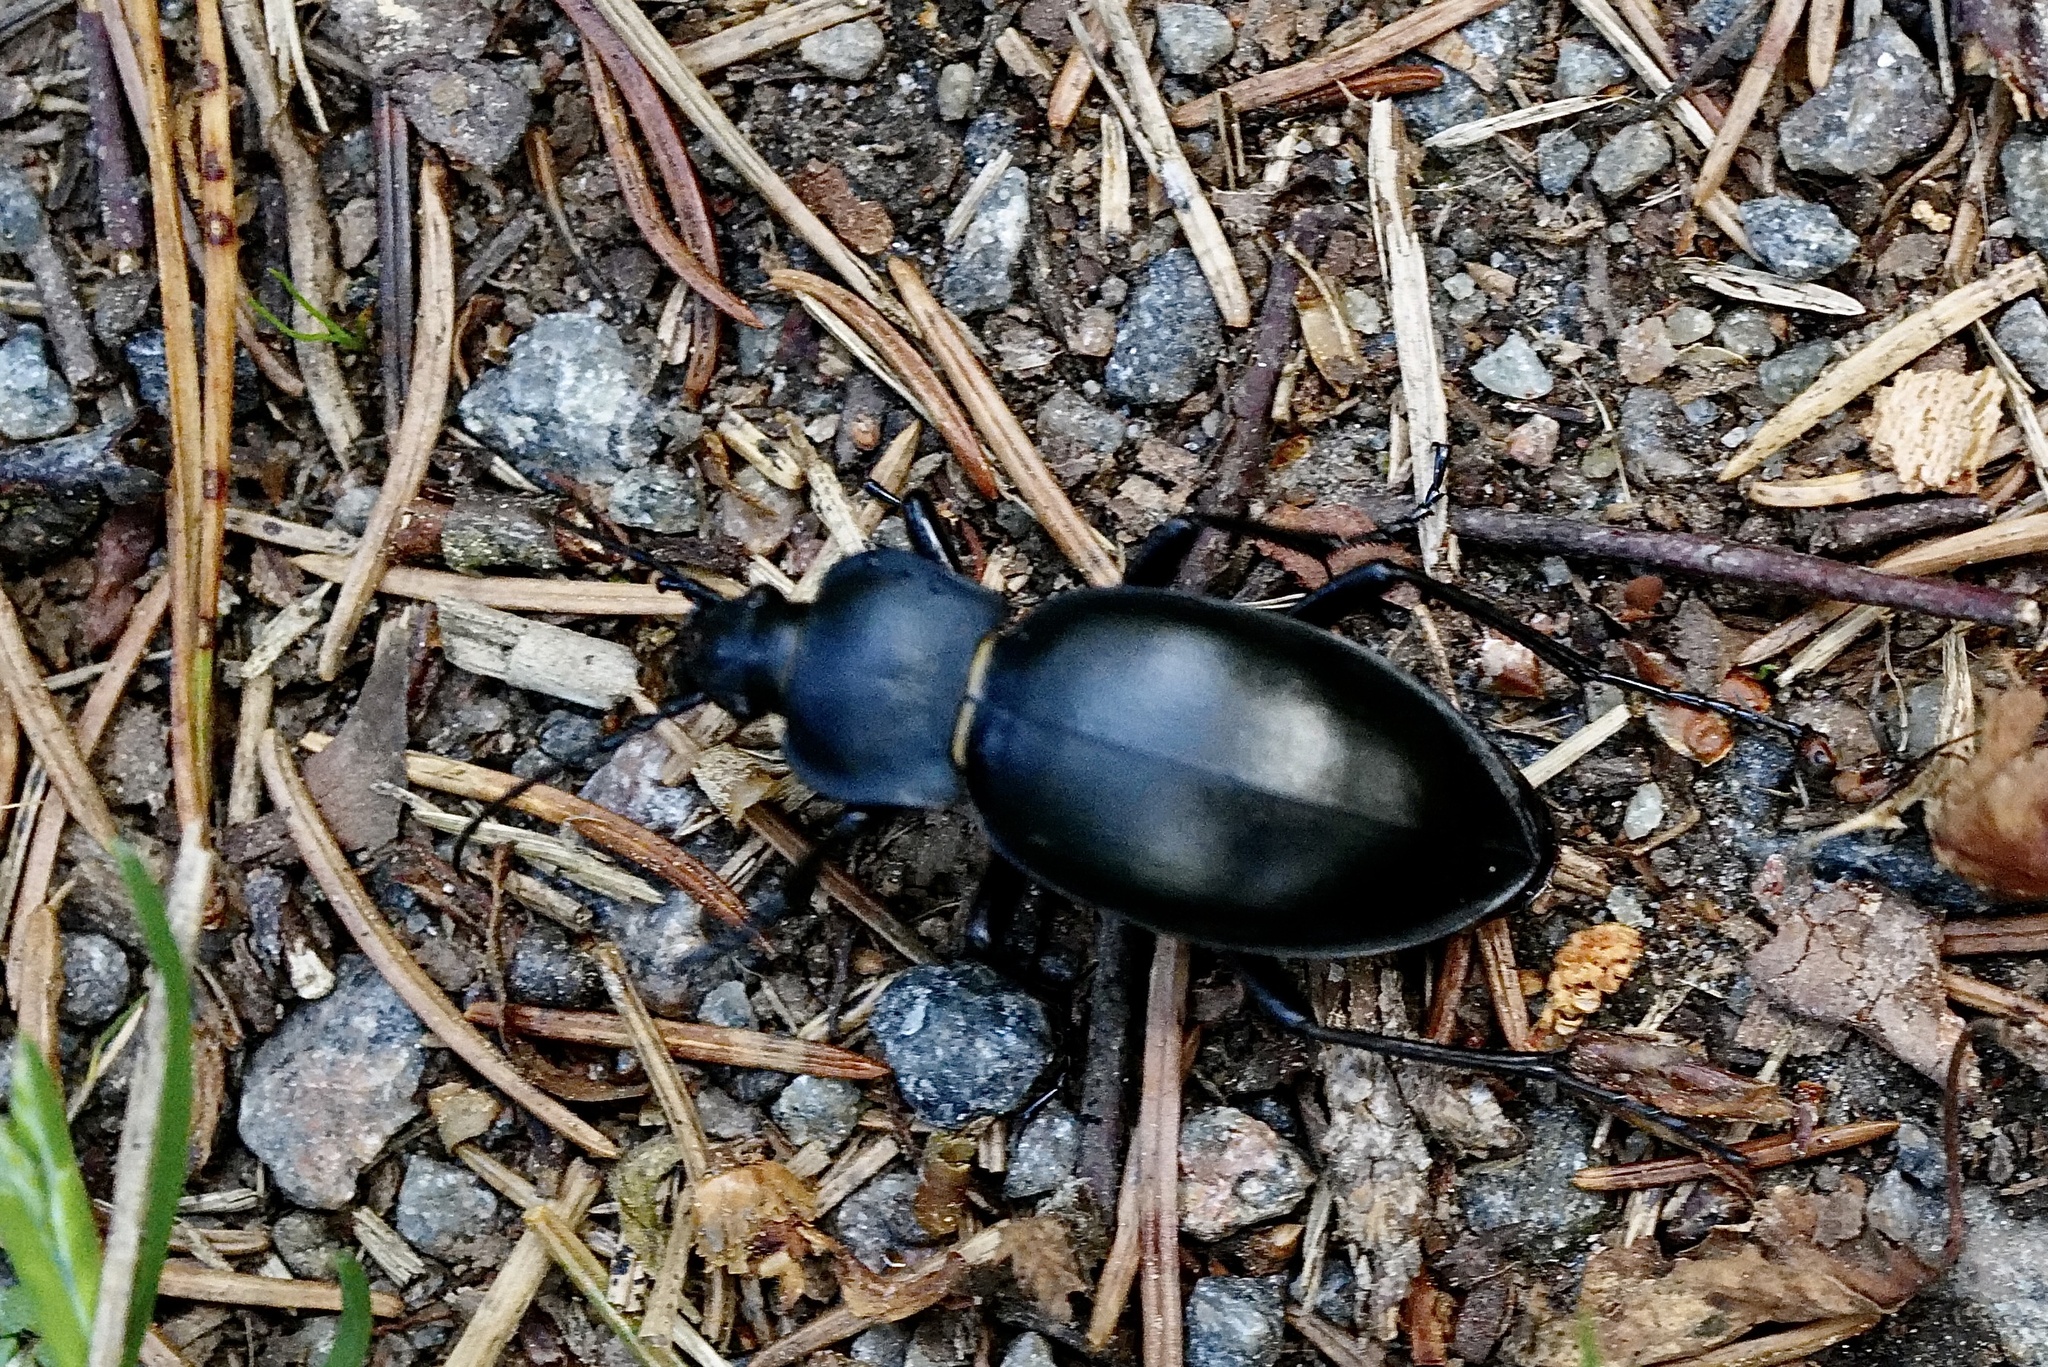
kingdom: Animalia
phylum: Arthropoda
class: Insecta
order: Coleoptera
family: Carabidae
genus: Carabus
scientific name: Carabus glabratus
